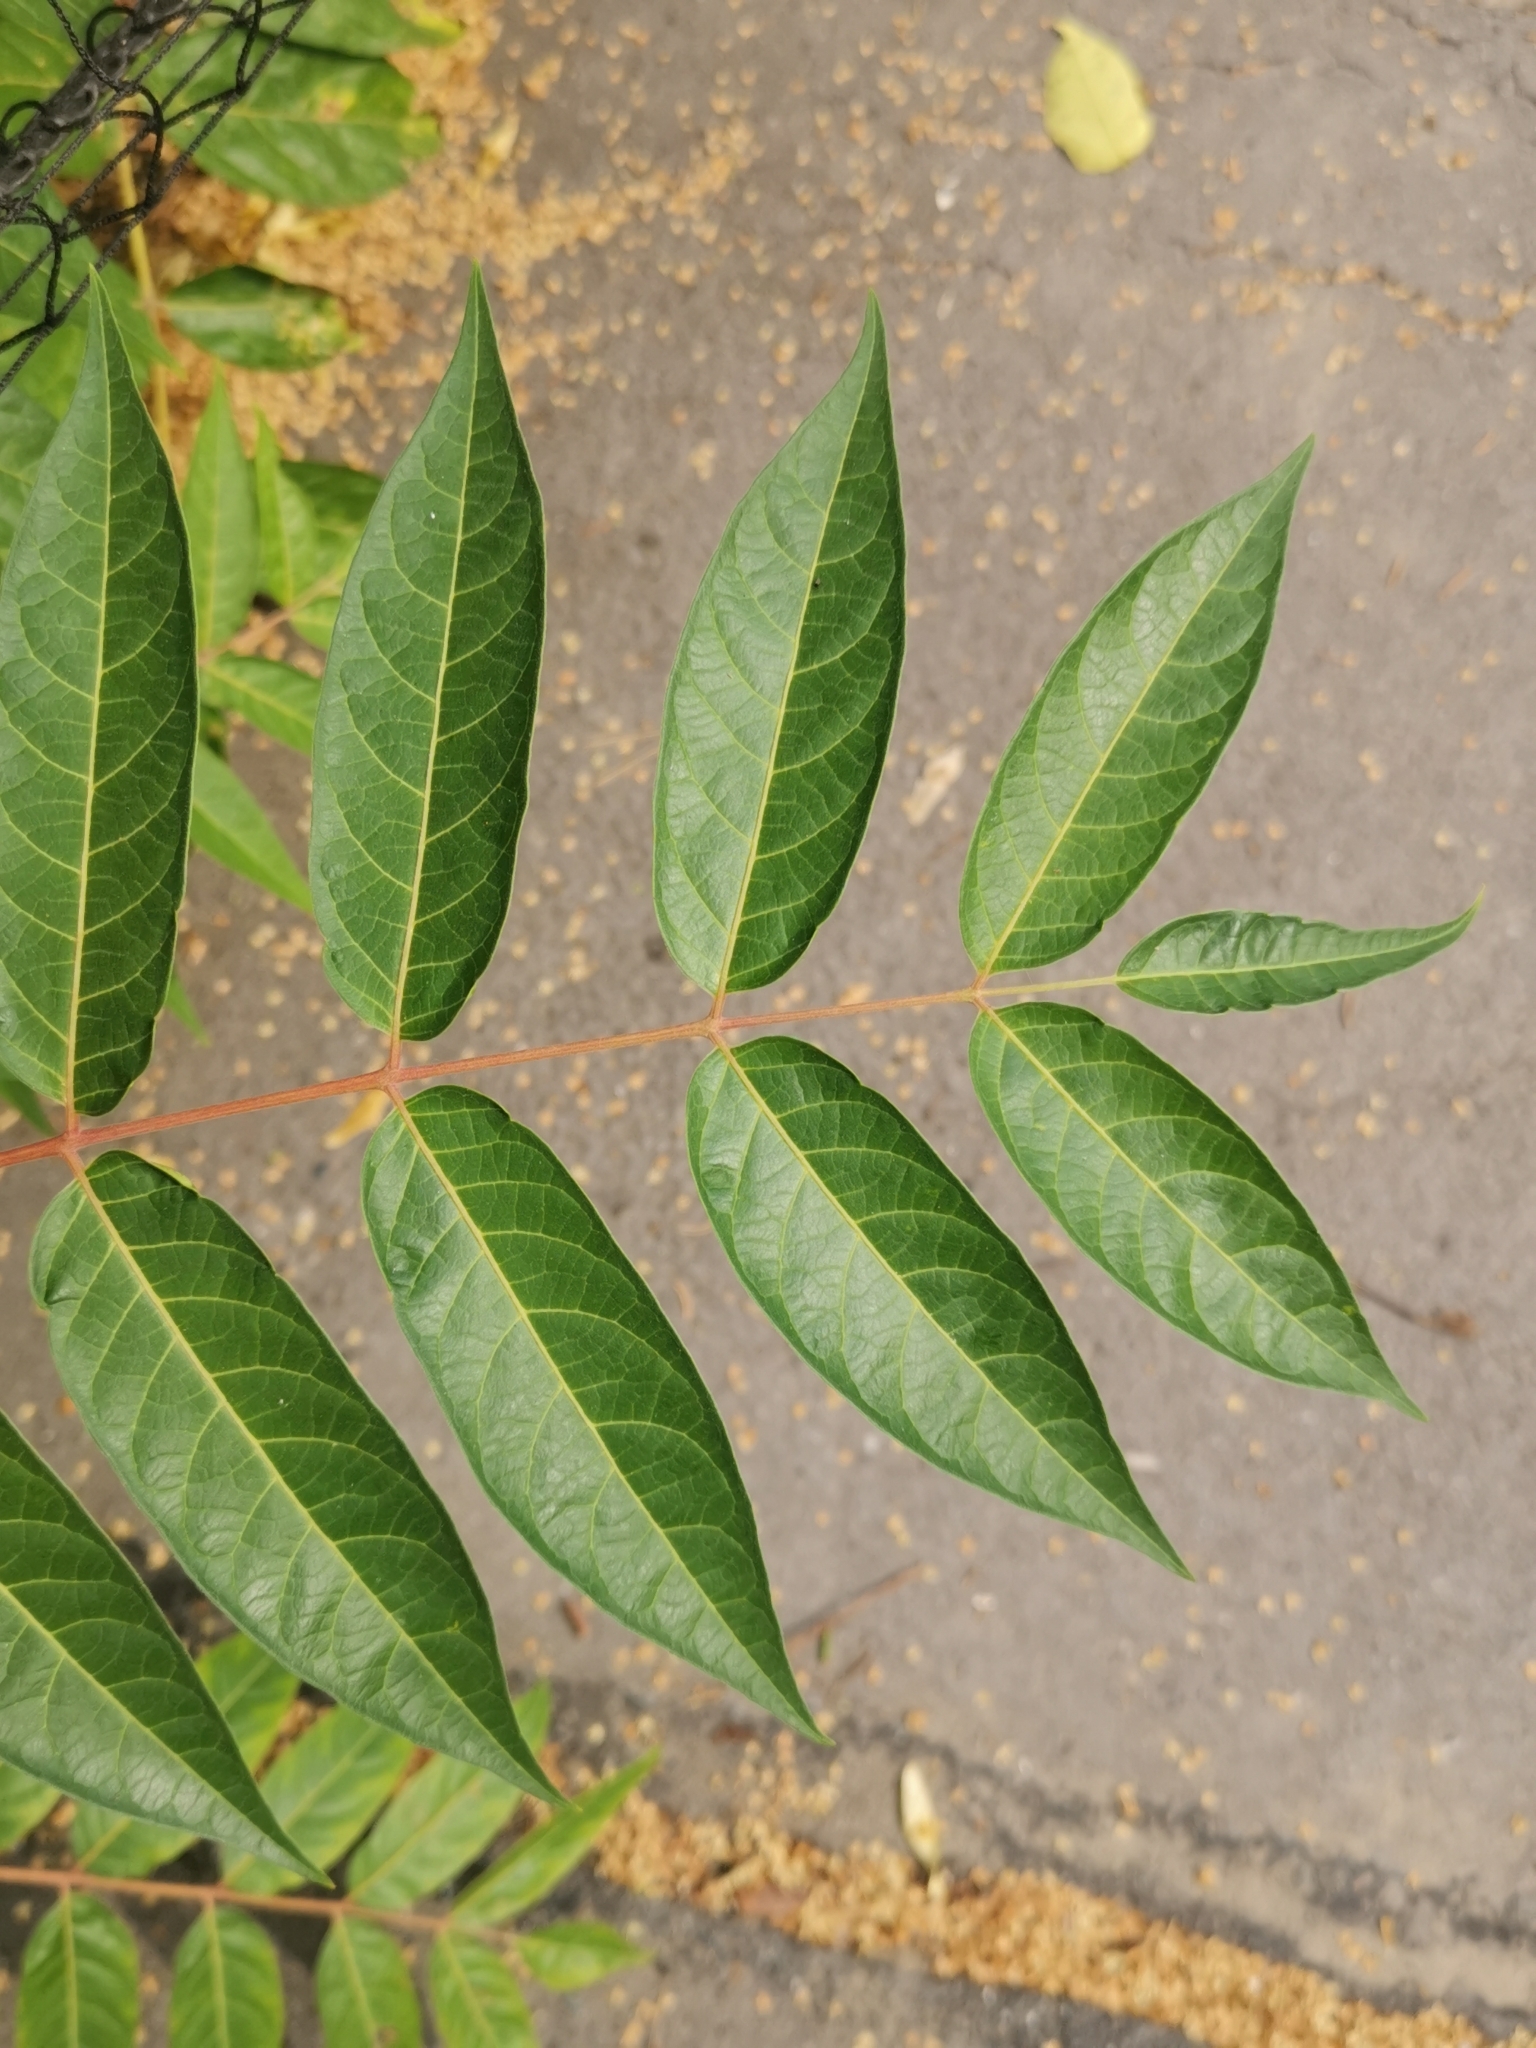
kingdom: Plantae
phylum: Tracheophyta
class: Magnoliopsida
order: Sapindales
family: Simaroubaceae
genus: Ailanthus
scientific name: Ailanthus altissima
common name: Tree-of-heaven
